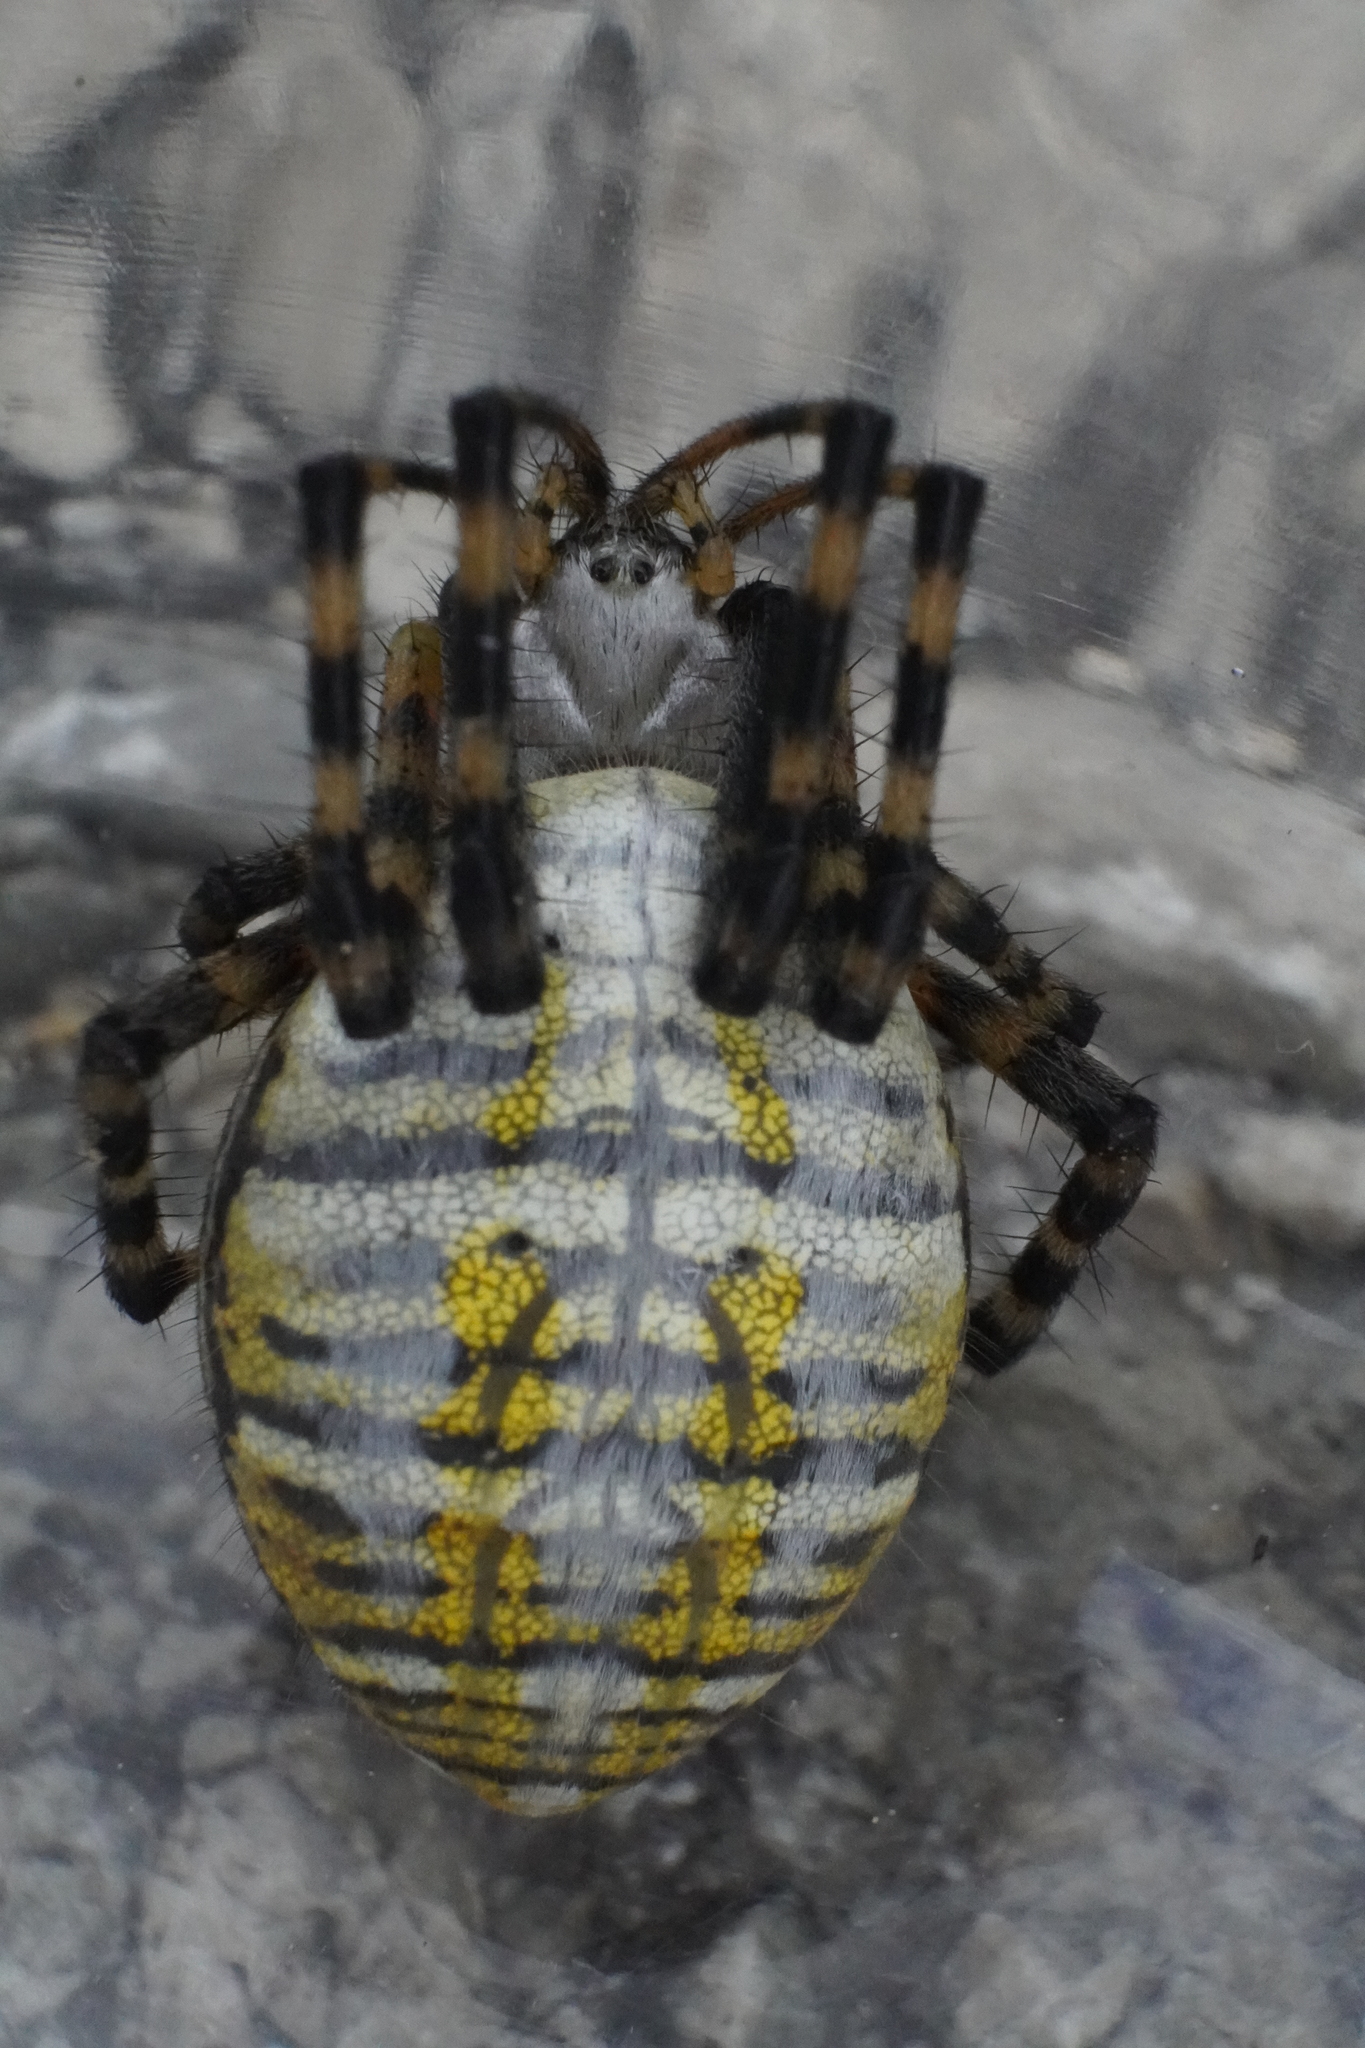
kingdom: Animalia
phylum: Arthropoda
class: Arachnida
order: Araneae
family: Araneidae
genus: Argiope
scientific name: Argiope trifasciata
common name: Banded garden spider
